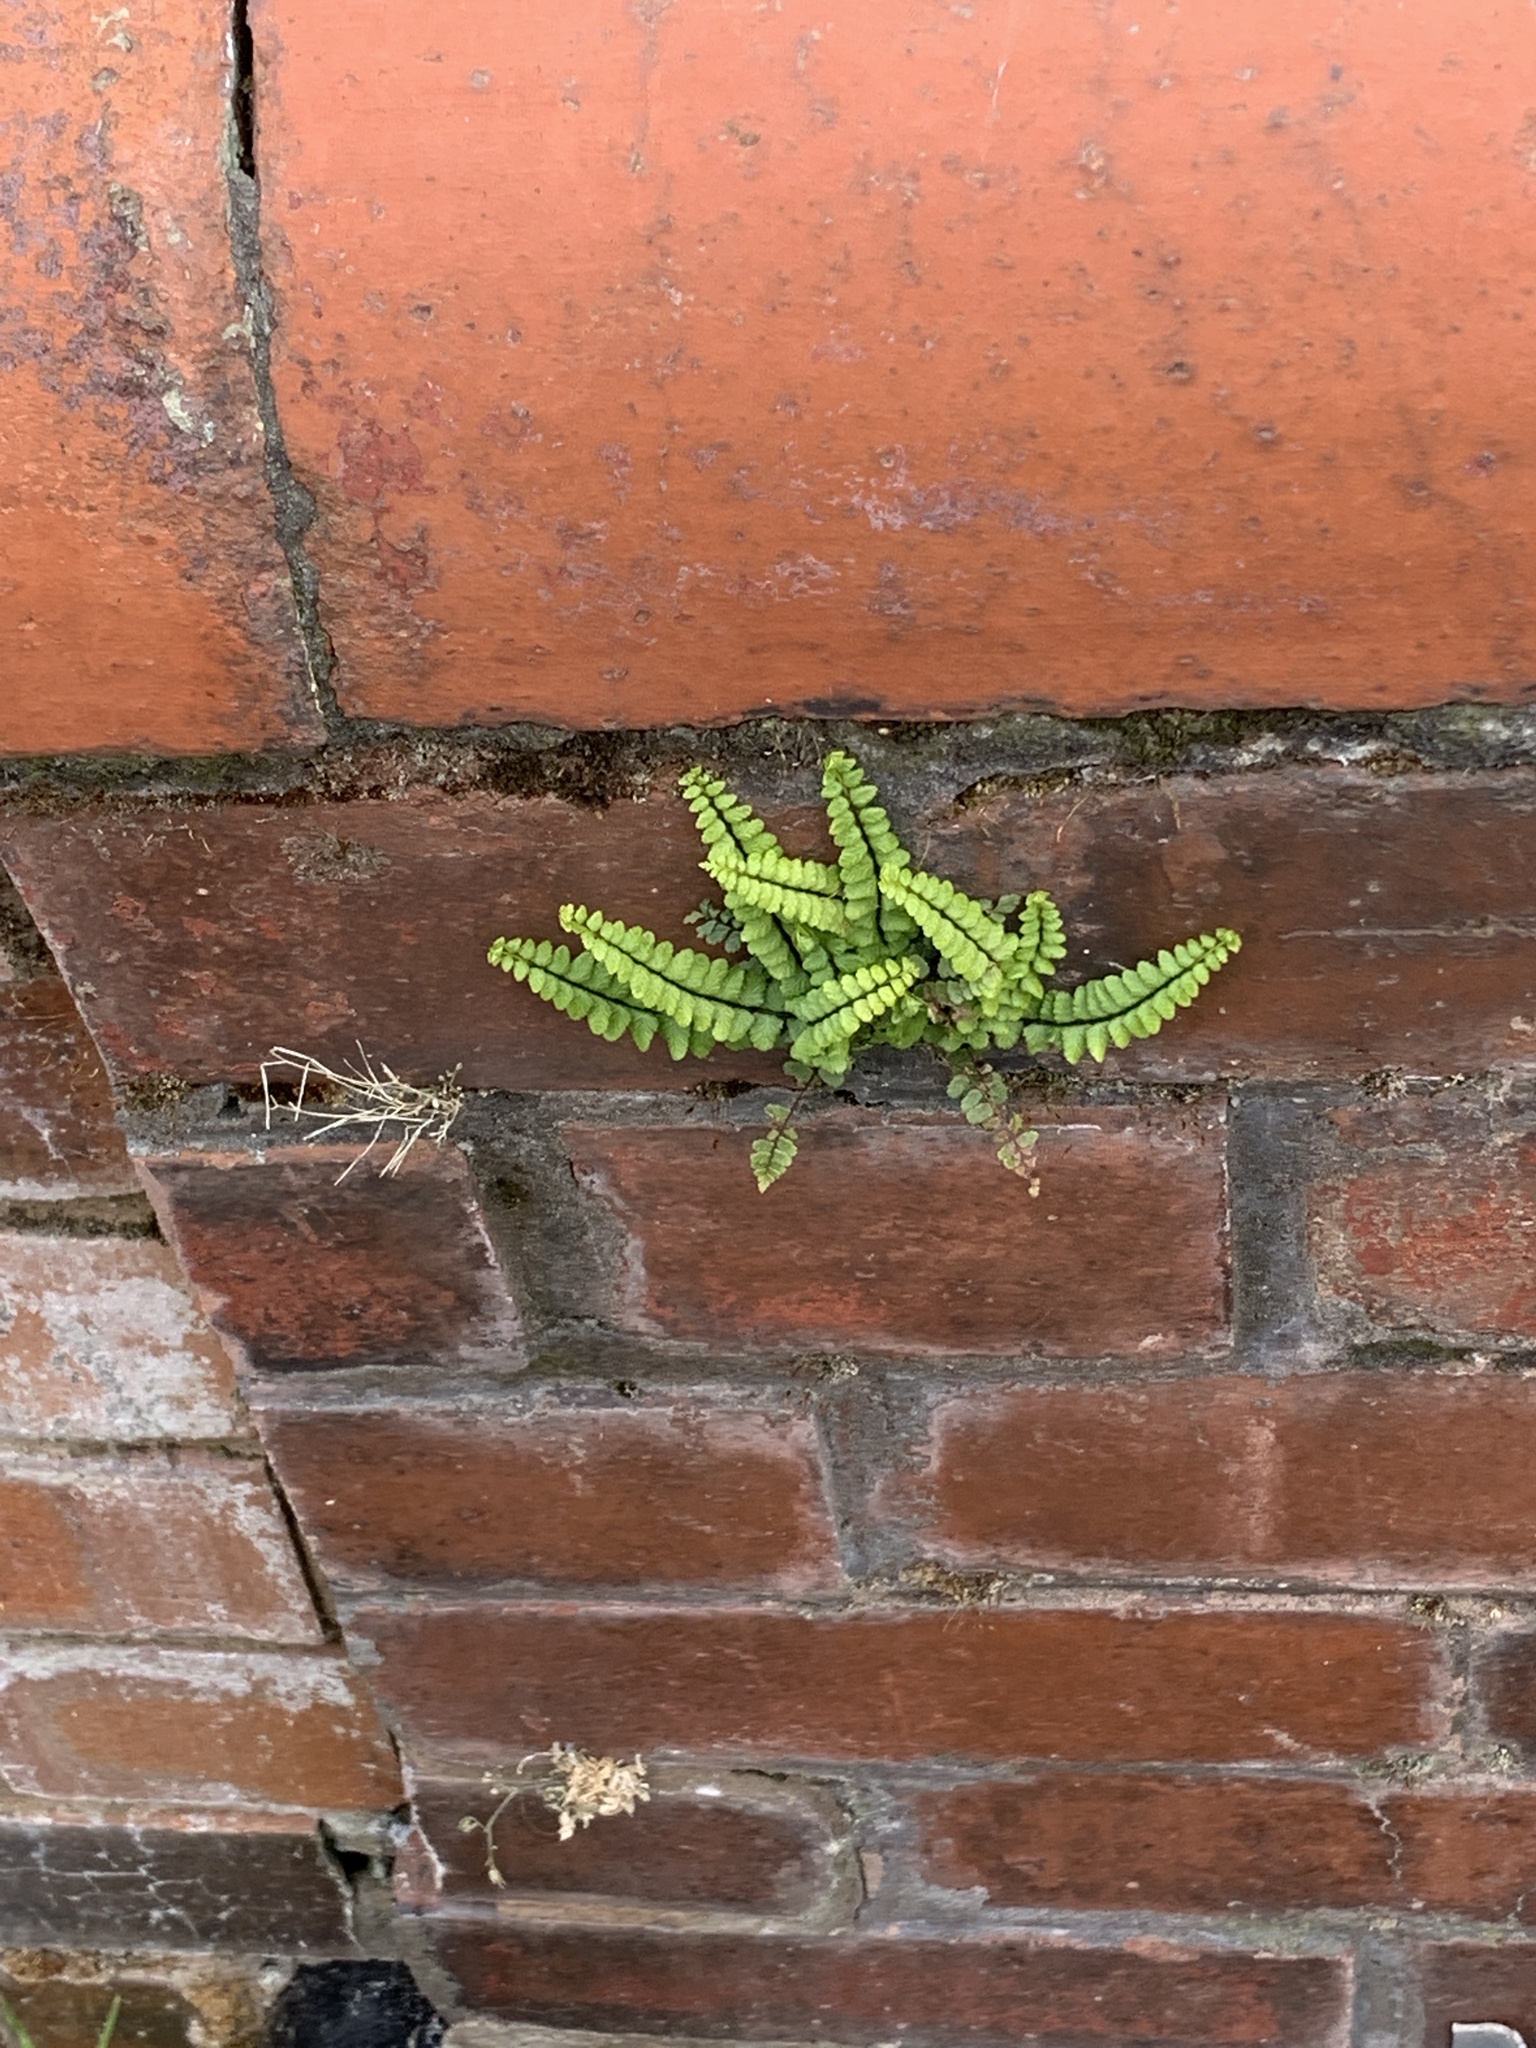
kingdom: Plantae
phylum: Tracheophyta
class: Polypodiopsida
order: Polypodiales
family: Aspleniaceae
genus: Asplenium
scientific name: Asplenium trichomanes
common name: Maidenhair spleenwort
